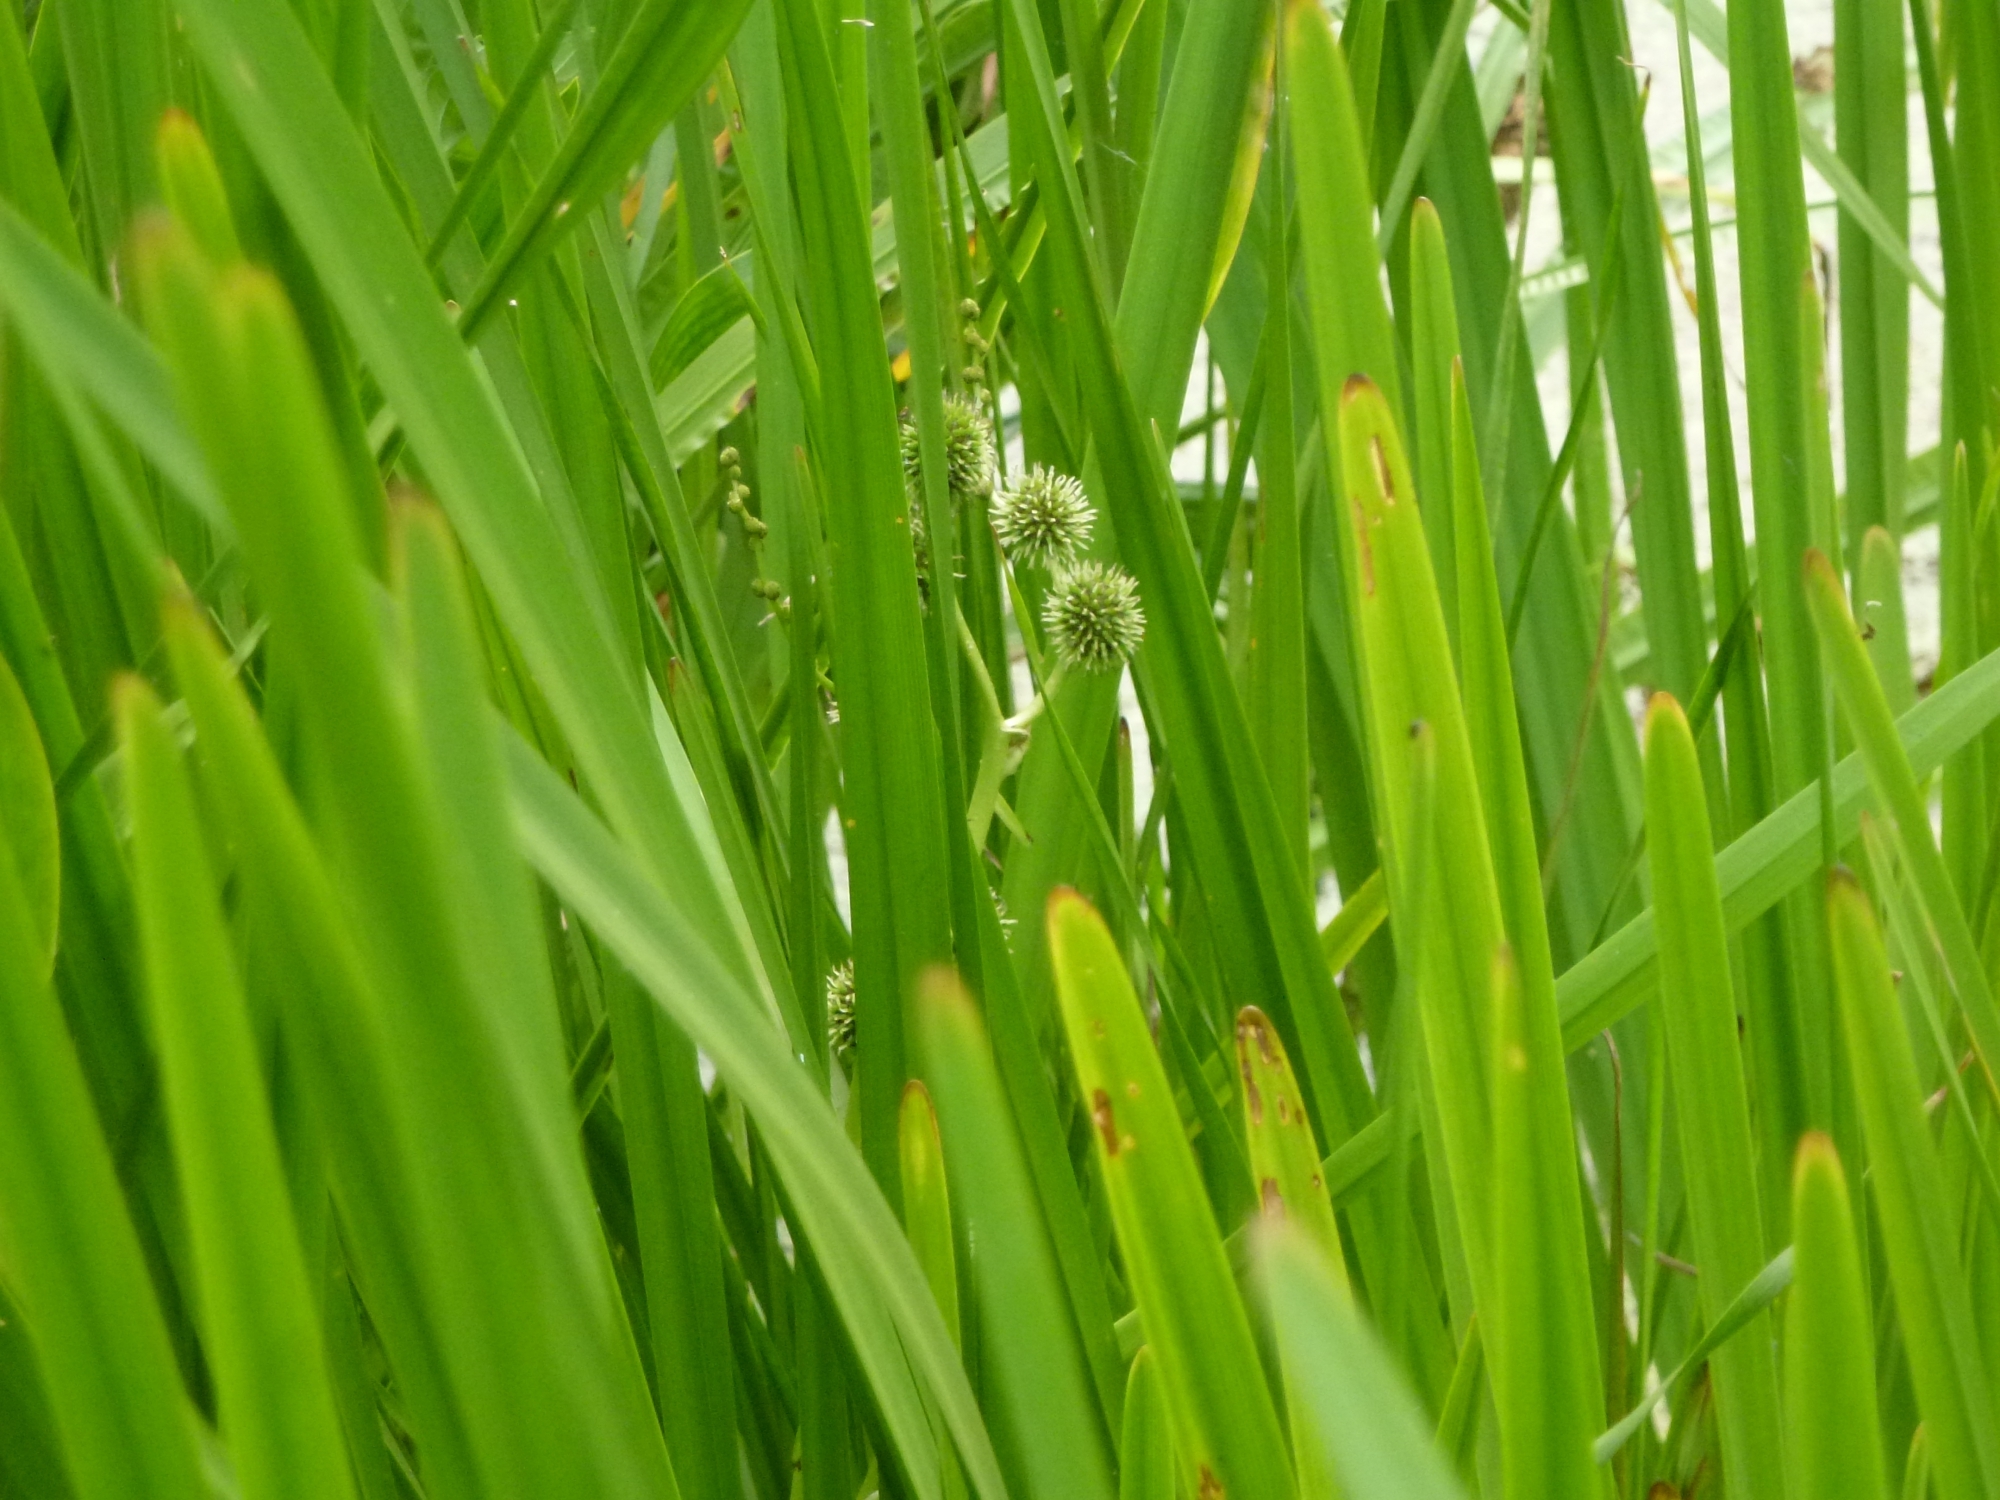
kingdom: Plantae
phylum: Tracheophyta
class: Liliopsida
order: Poales
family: Typhaceae
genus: Sparganium
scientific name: Sparganium erectum
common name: Branched bur-reed
